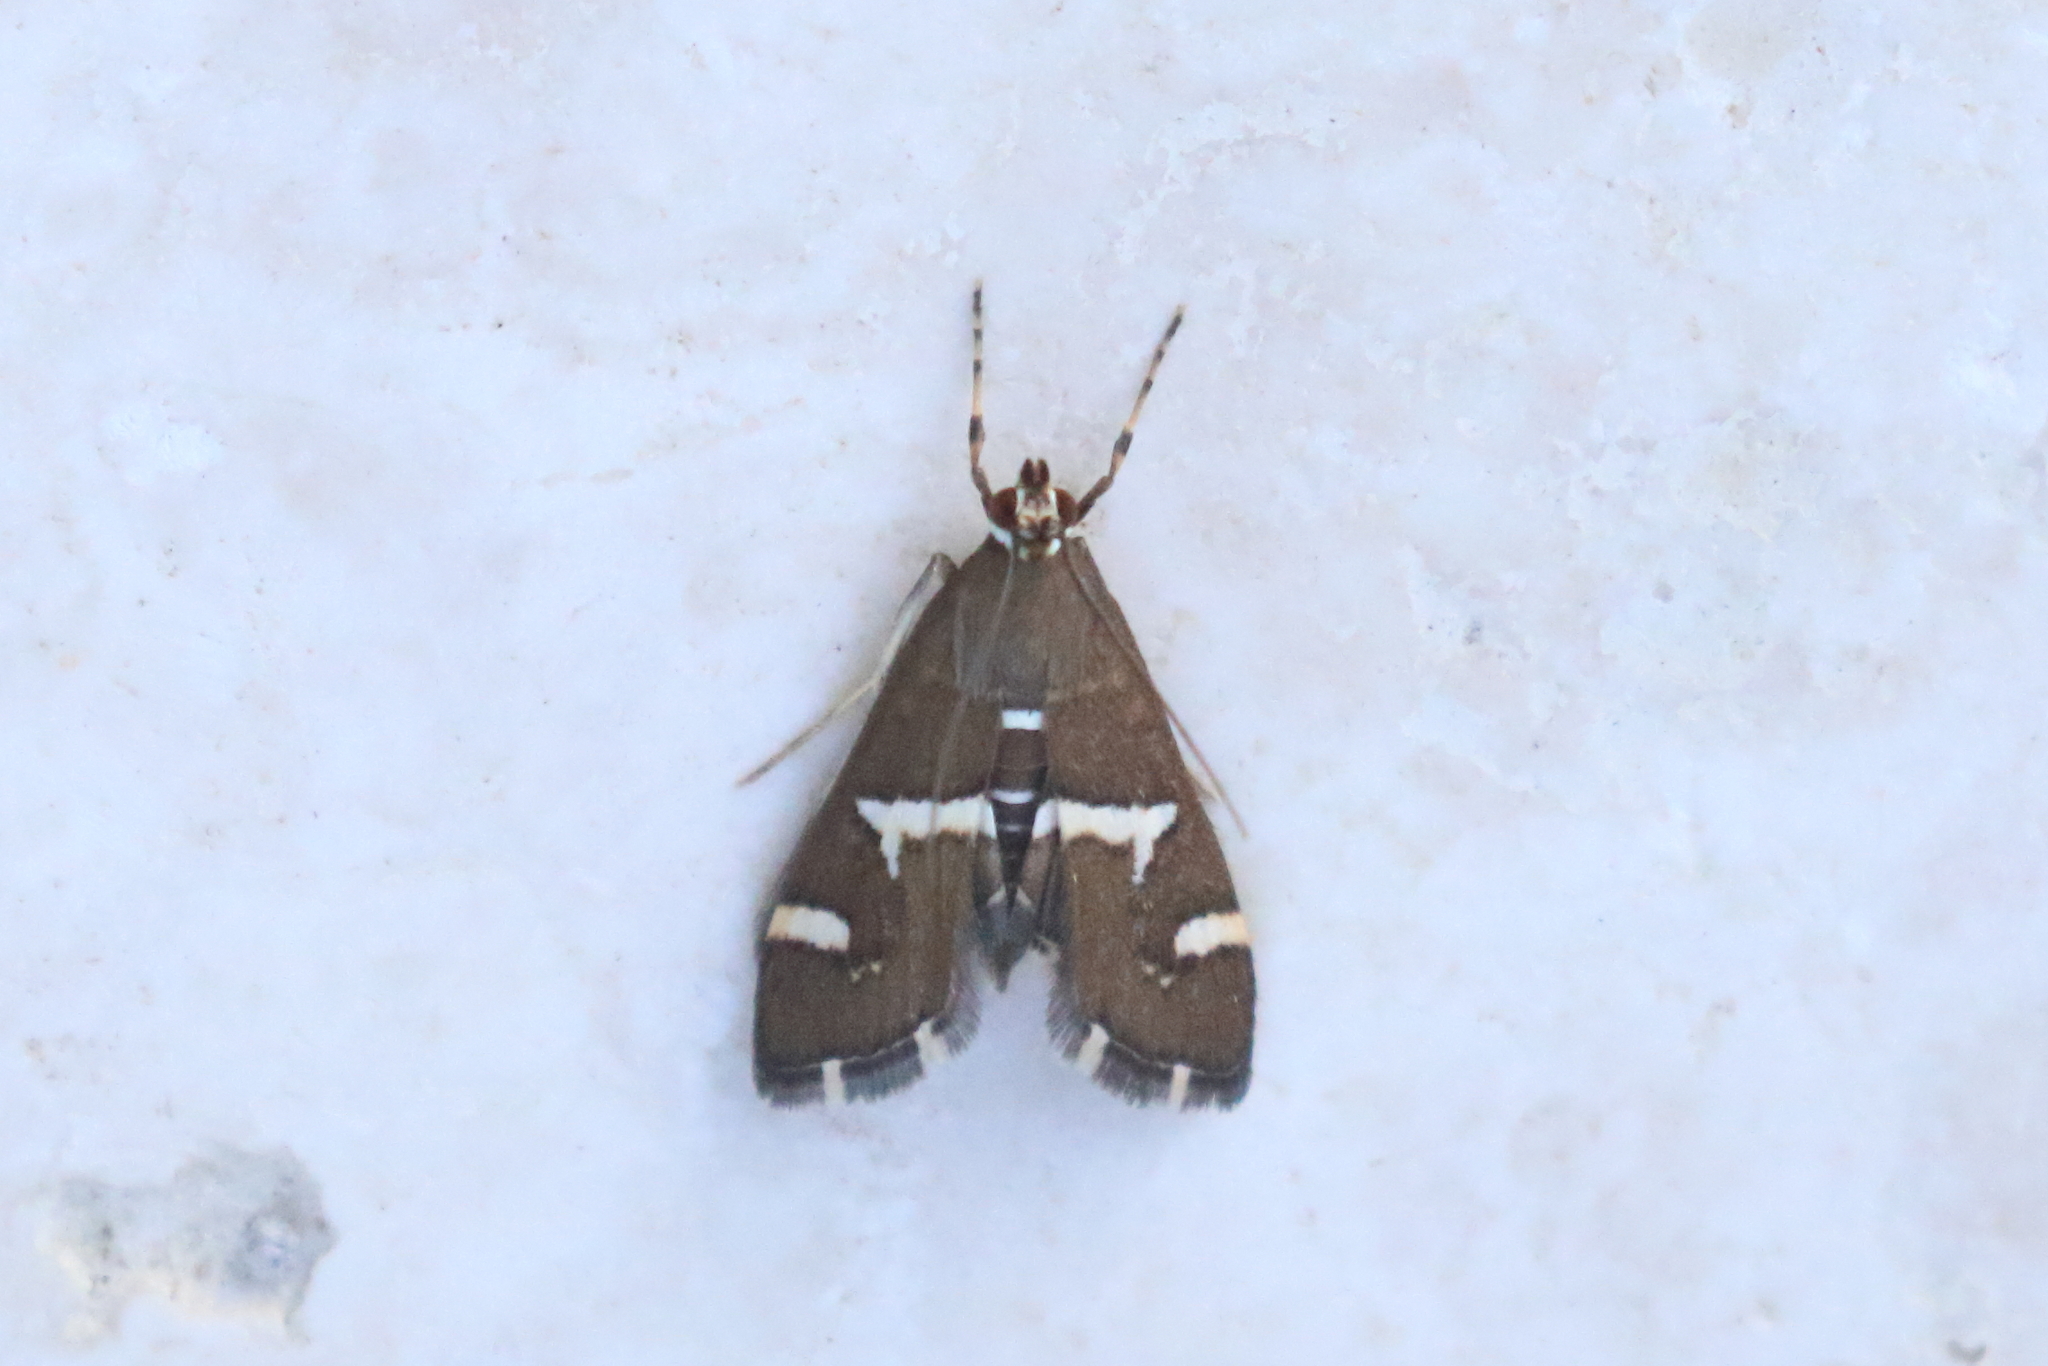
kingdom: Animalia
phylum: Arthropoda
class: Insecta
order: Lepidoptera
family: Crambidae
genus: Spoladea
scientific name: Spoladea recurvalis
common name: Beet webworm moth
